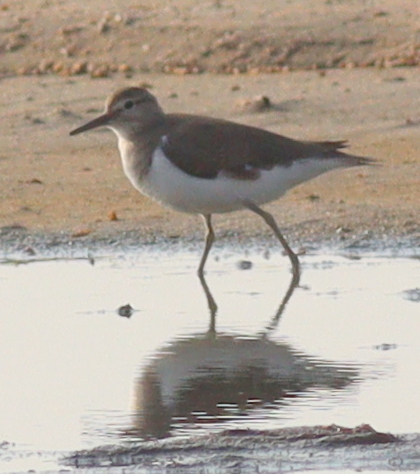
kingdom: Animalia
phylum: Chordata
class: Aves
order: Charadriiformes
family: Scolopacidae
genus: Actitis
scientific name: Actitis hypoleucos
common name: Common sandpiper
